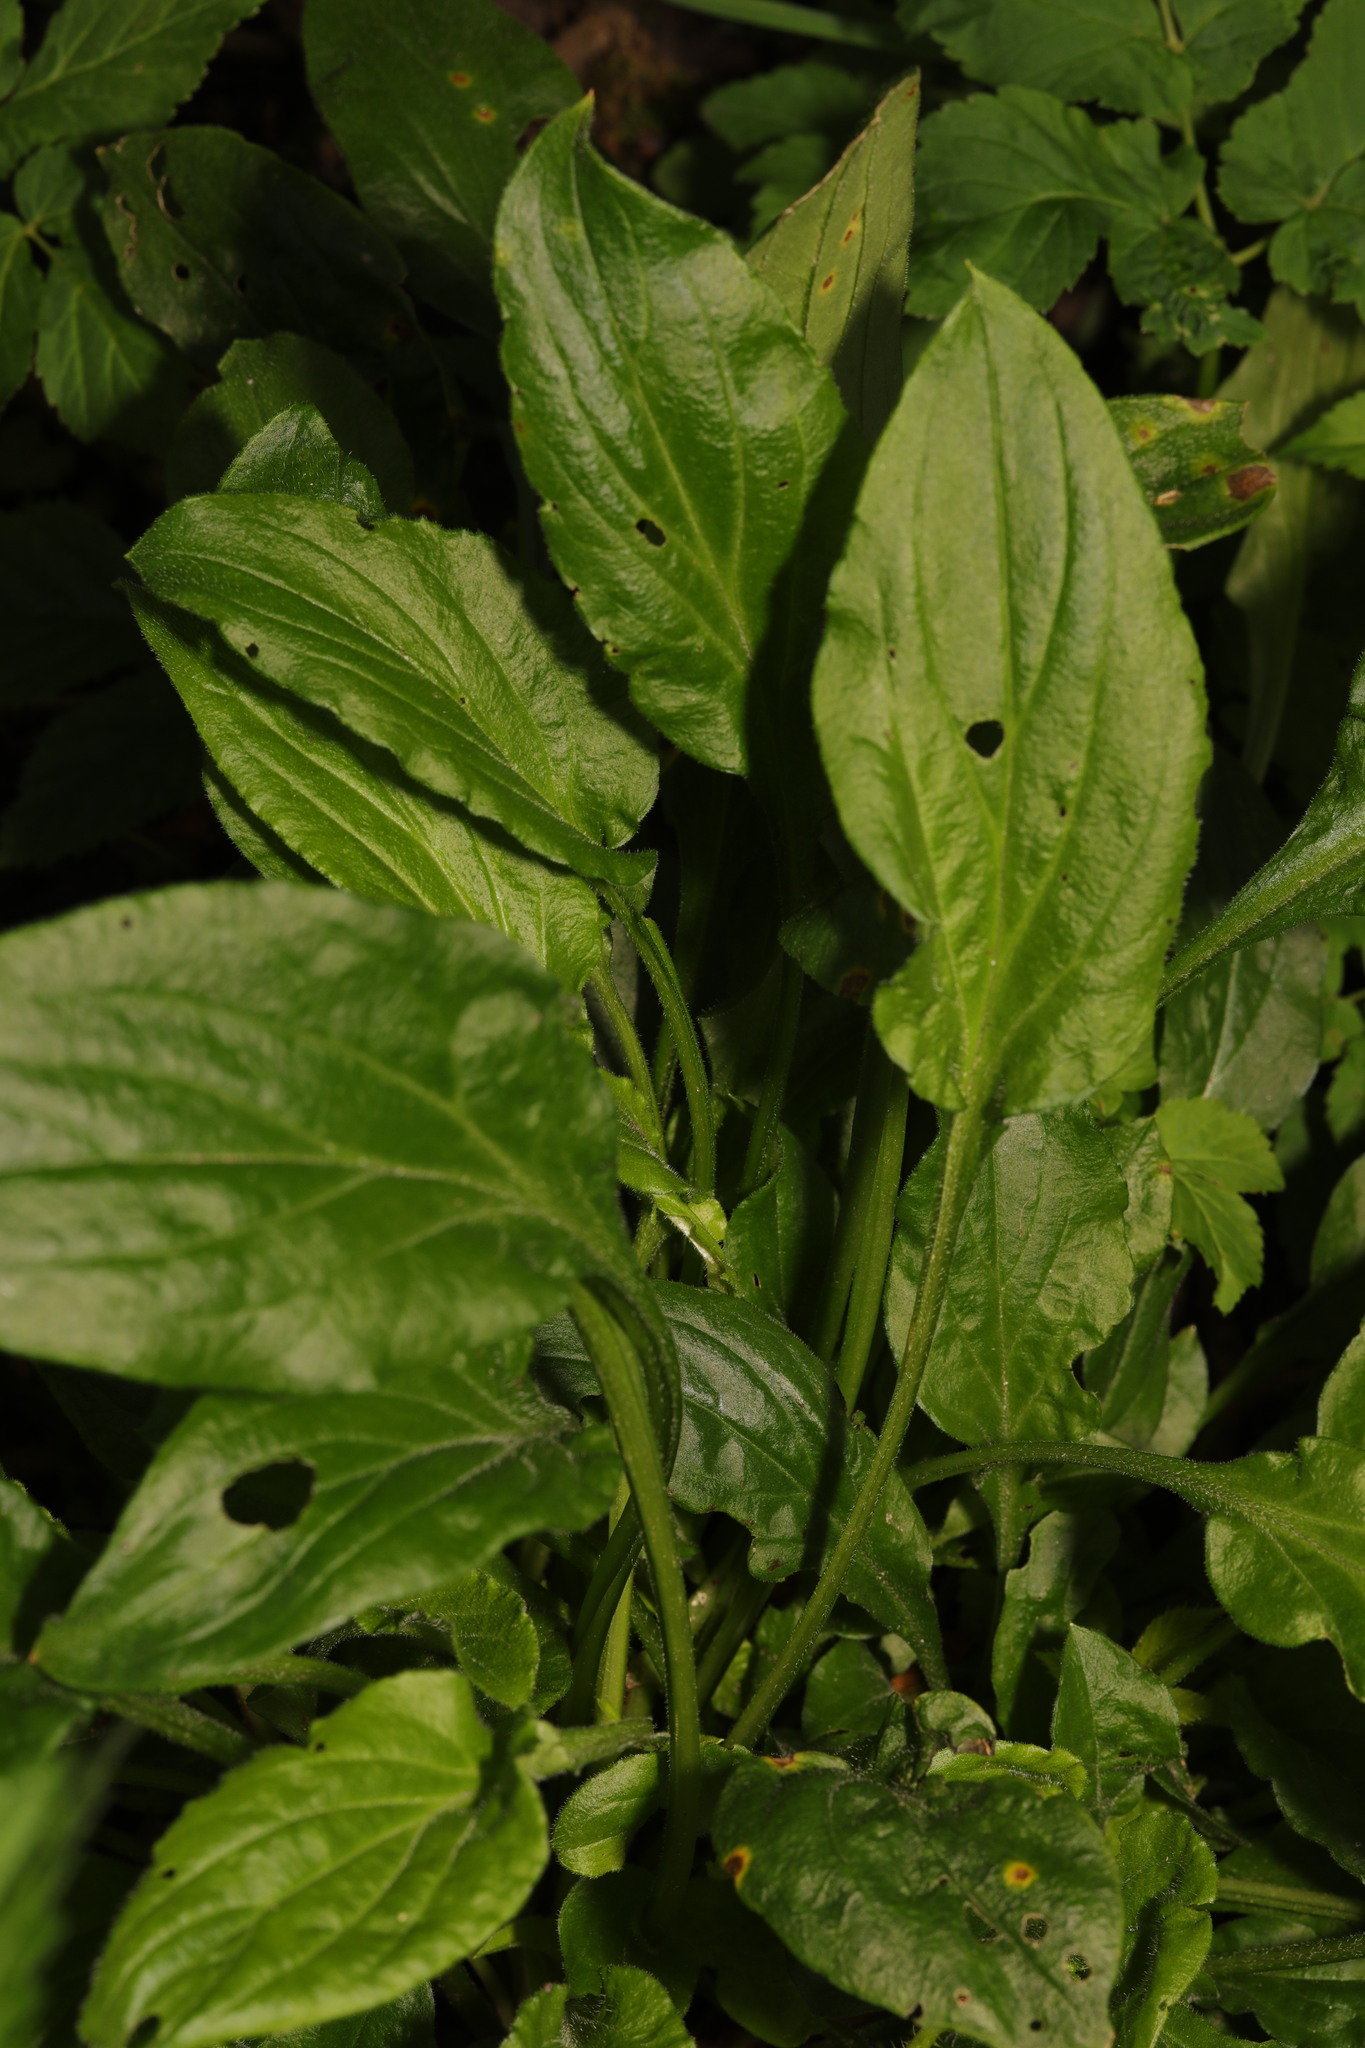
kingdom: Plantae
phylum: Tracheophyta
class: Magnoliopsida
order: Caryophyllales
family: Caryophyllaceae
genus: Silene
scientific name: Silene dioica
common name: Red campion
